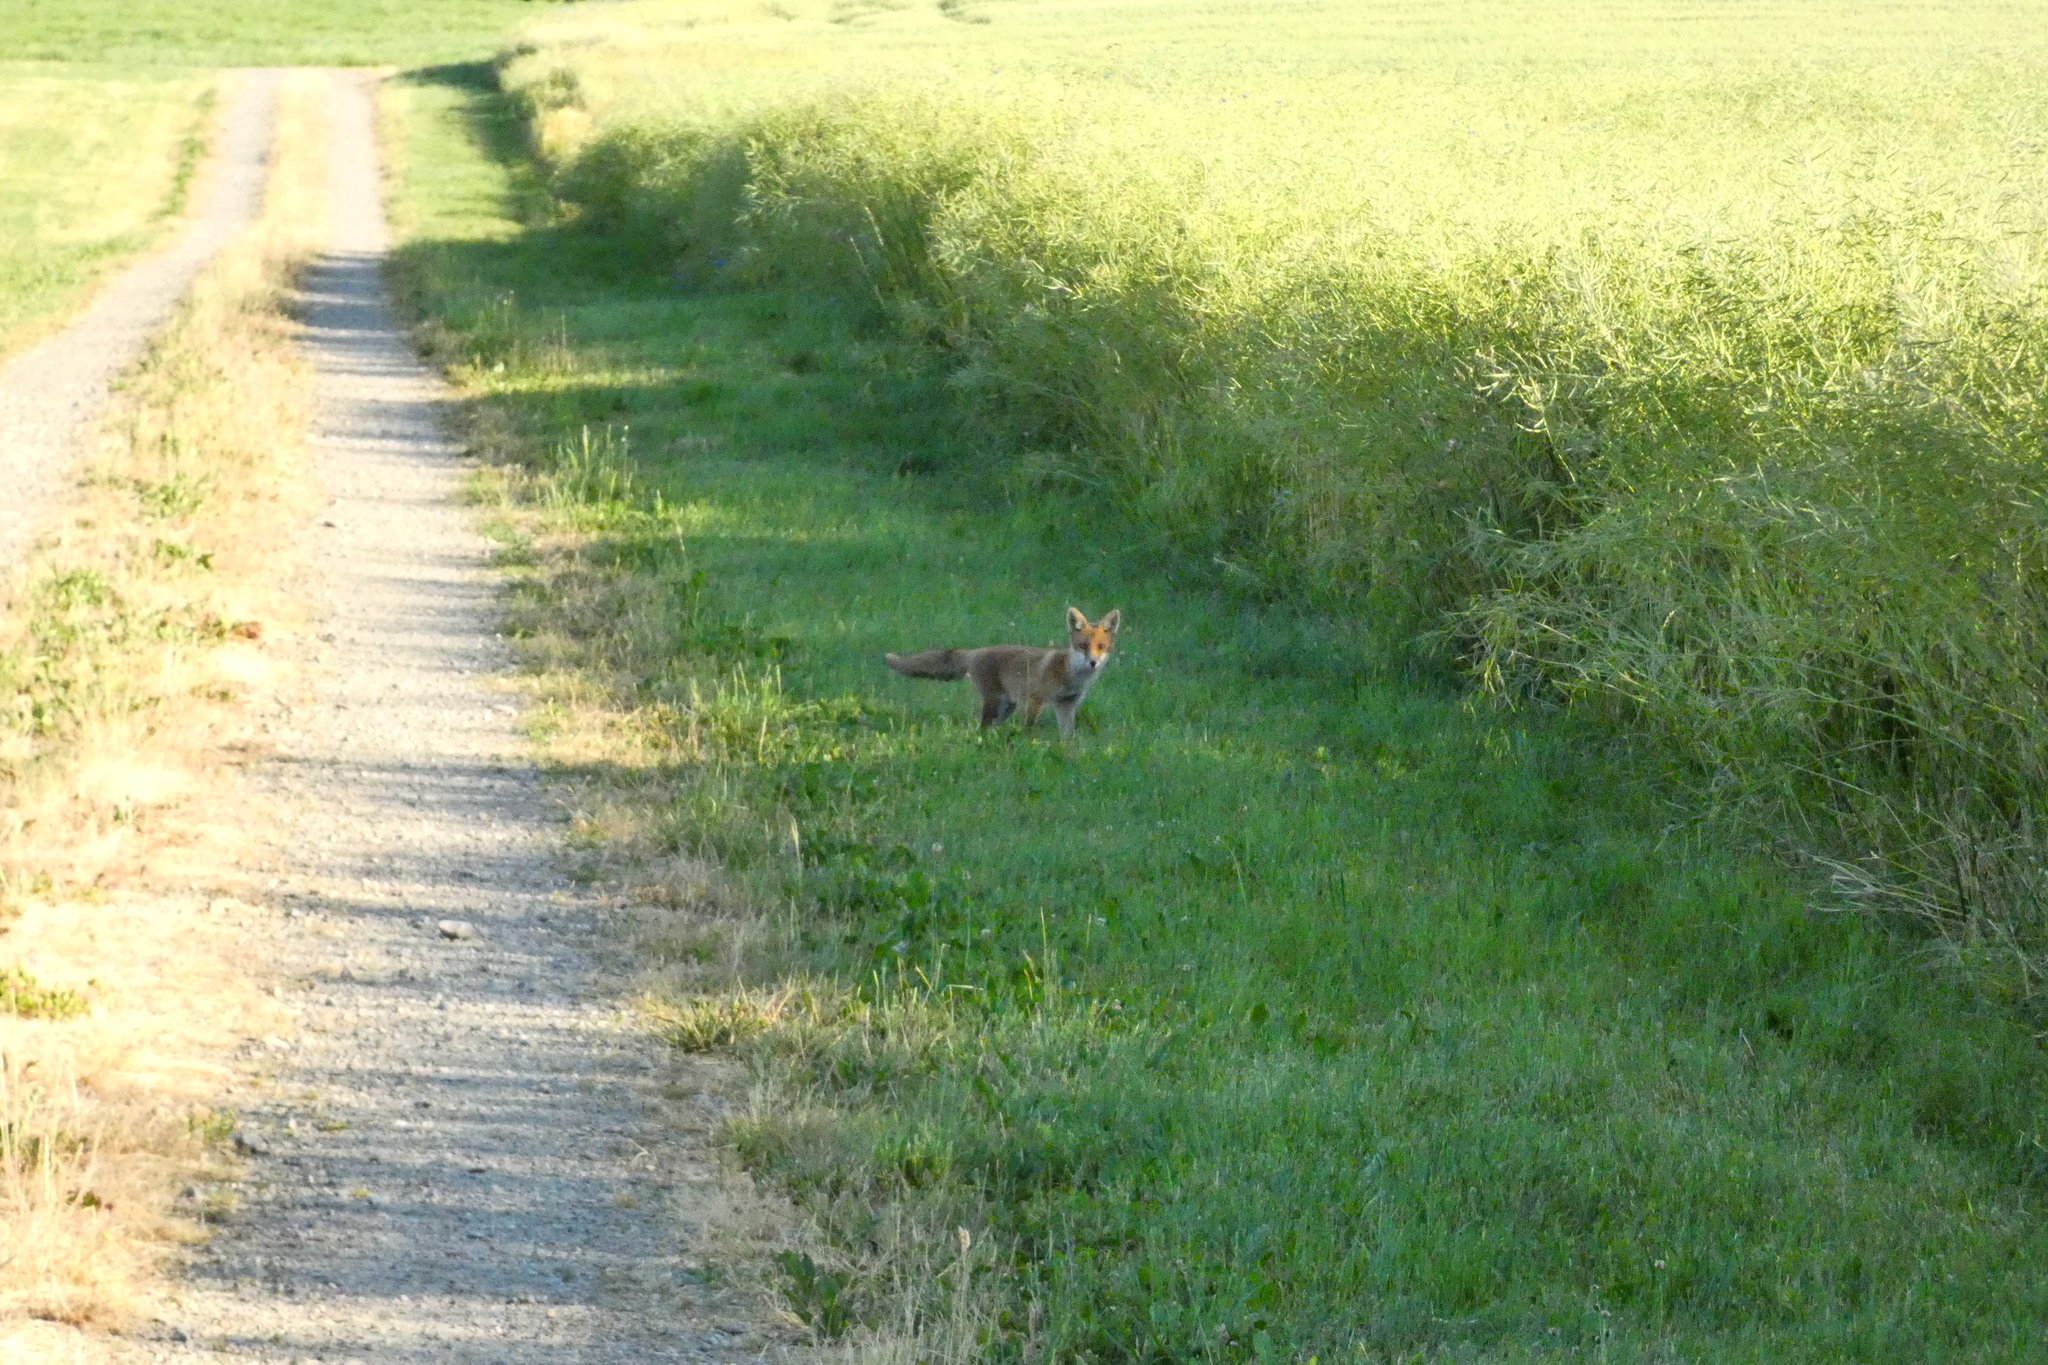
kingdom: Animalia
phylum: Chordata
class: Mammalia
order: Carnivora
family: Canidae
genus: Vulpes
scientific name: Vulpes vulpes
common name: Red fox
